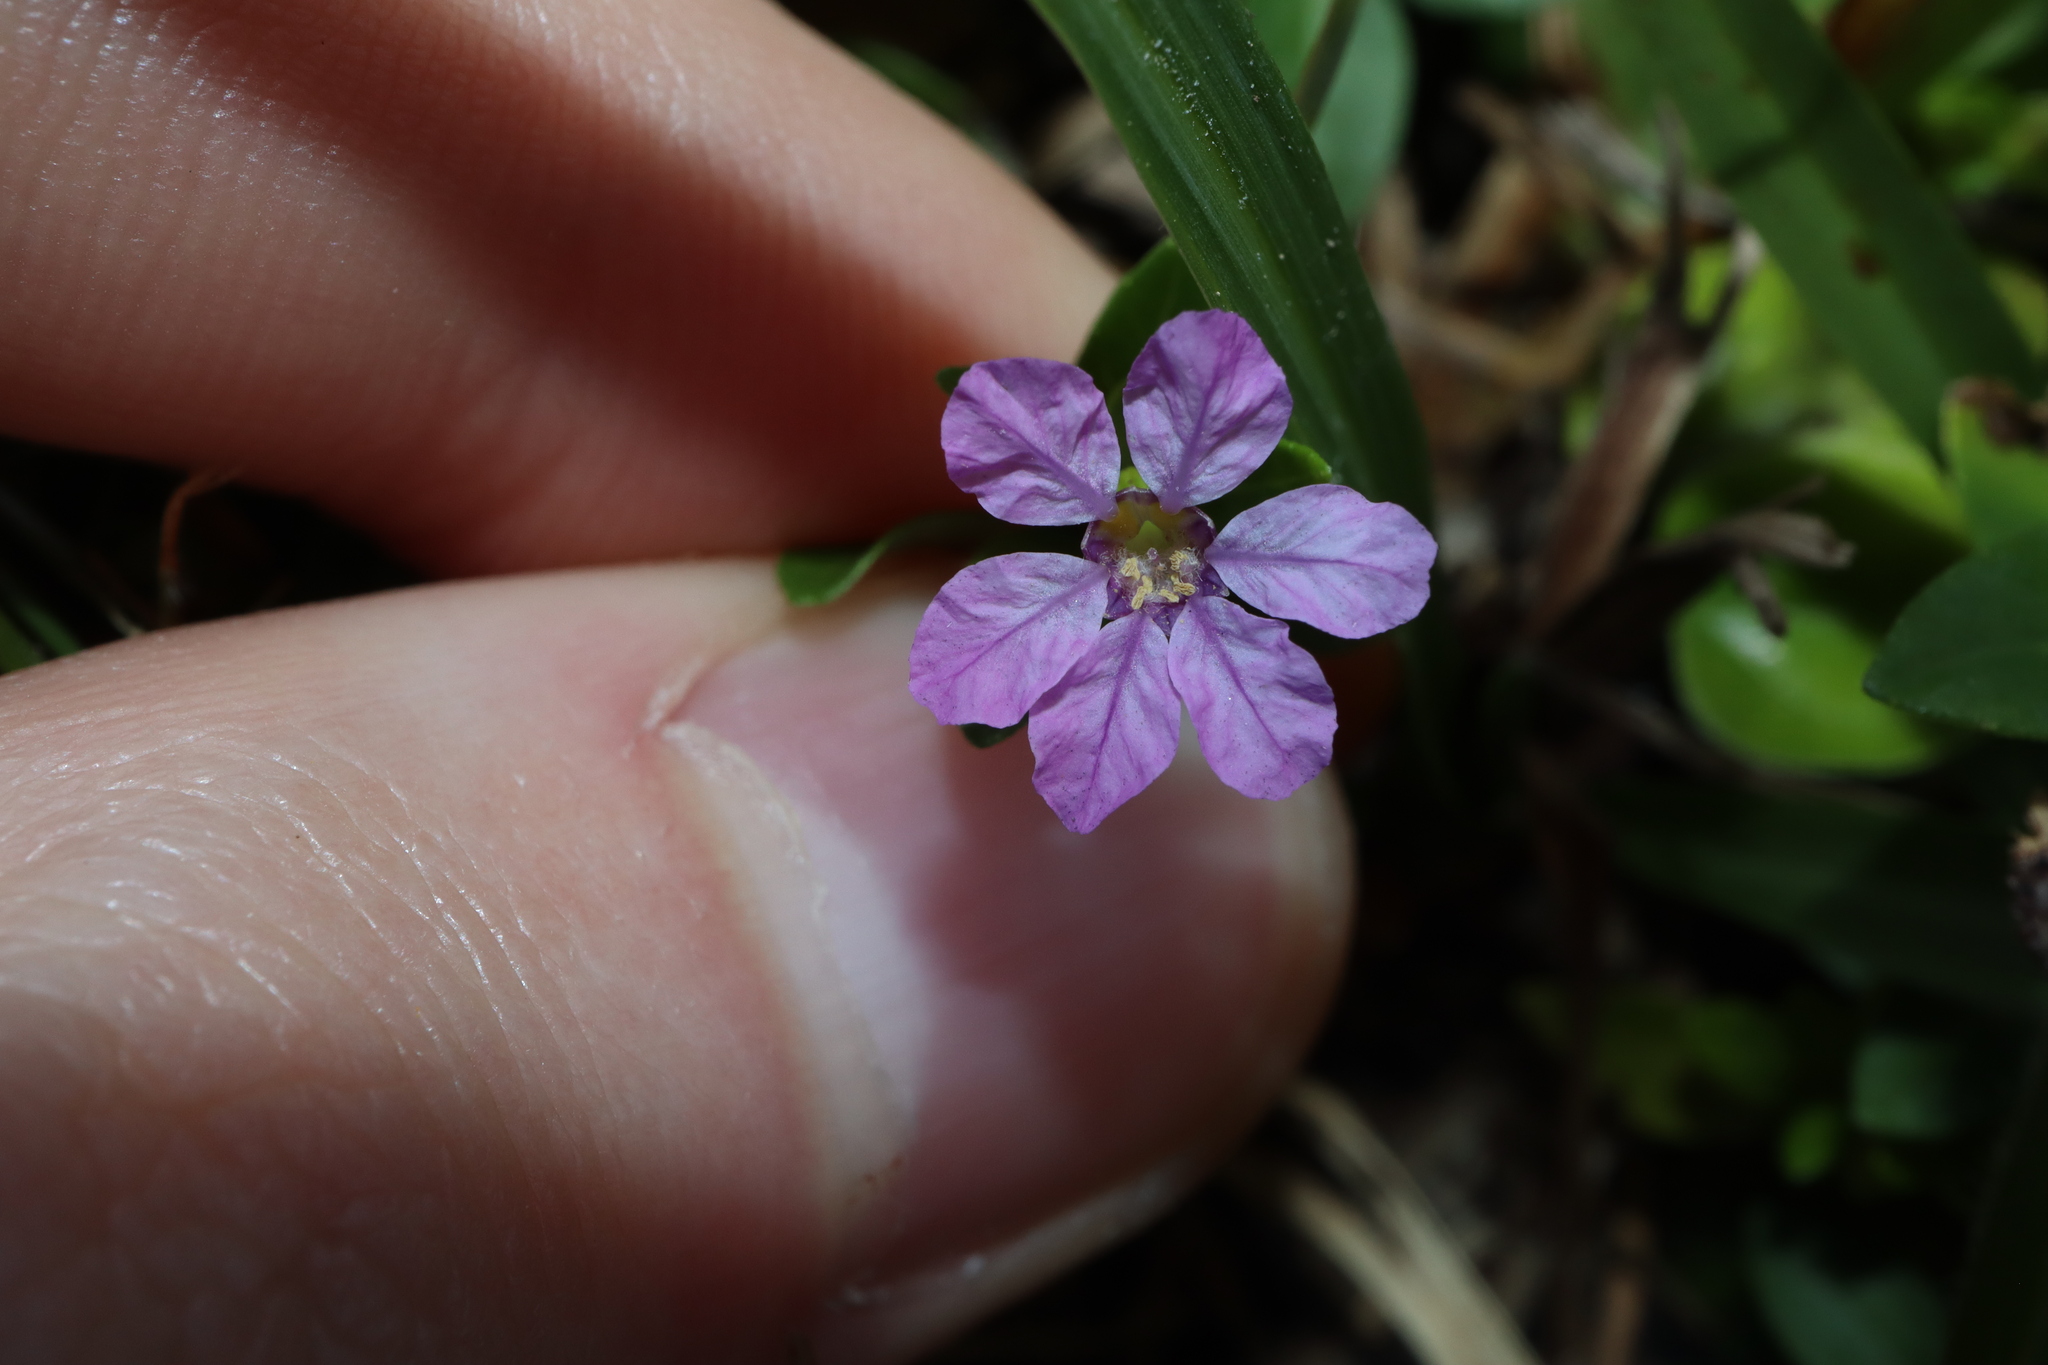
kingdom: Plantae
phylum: Tracheophyta
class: Magnoliopsida
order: Myrtales
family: Lythraceae
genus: Cuphea
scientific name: Cuphea hyssopifolia
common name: False heather
